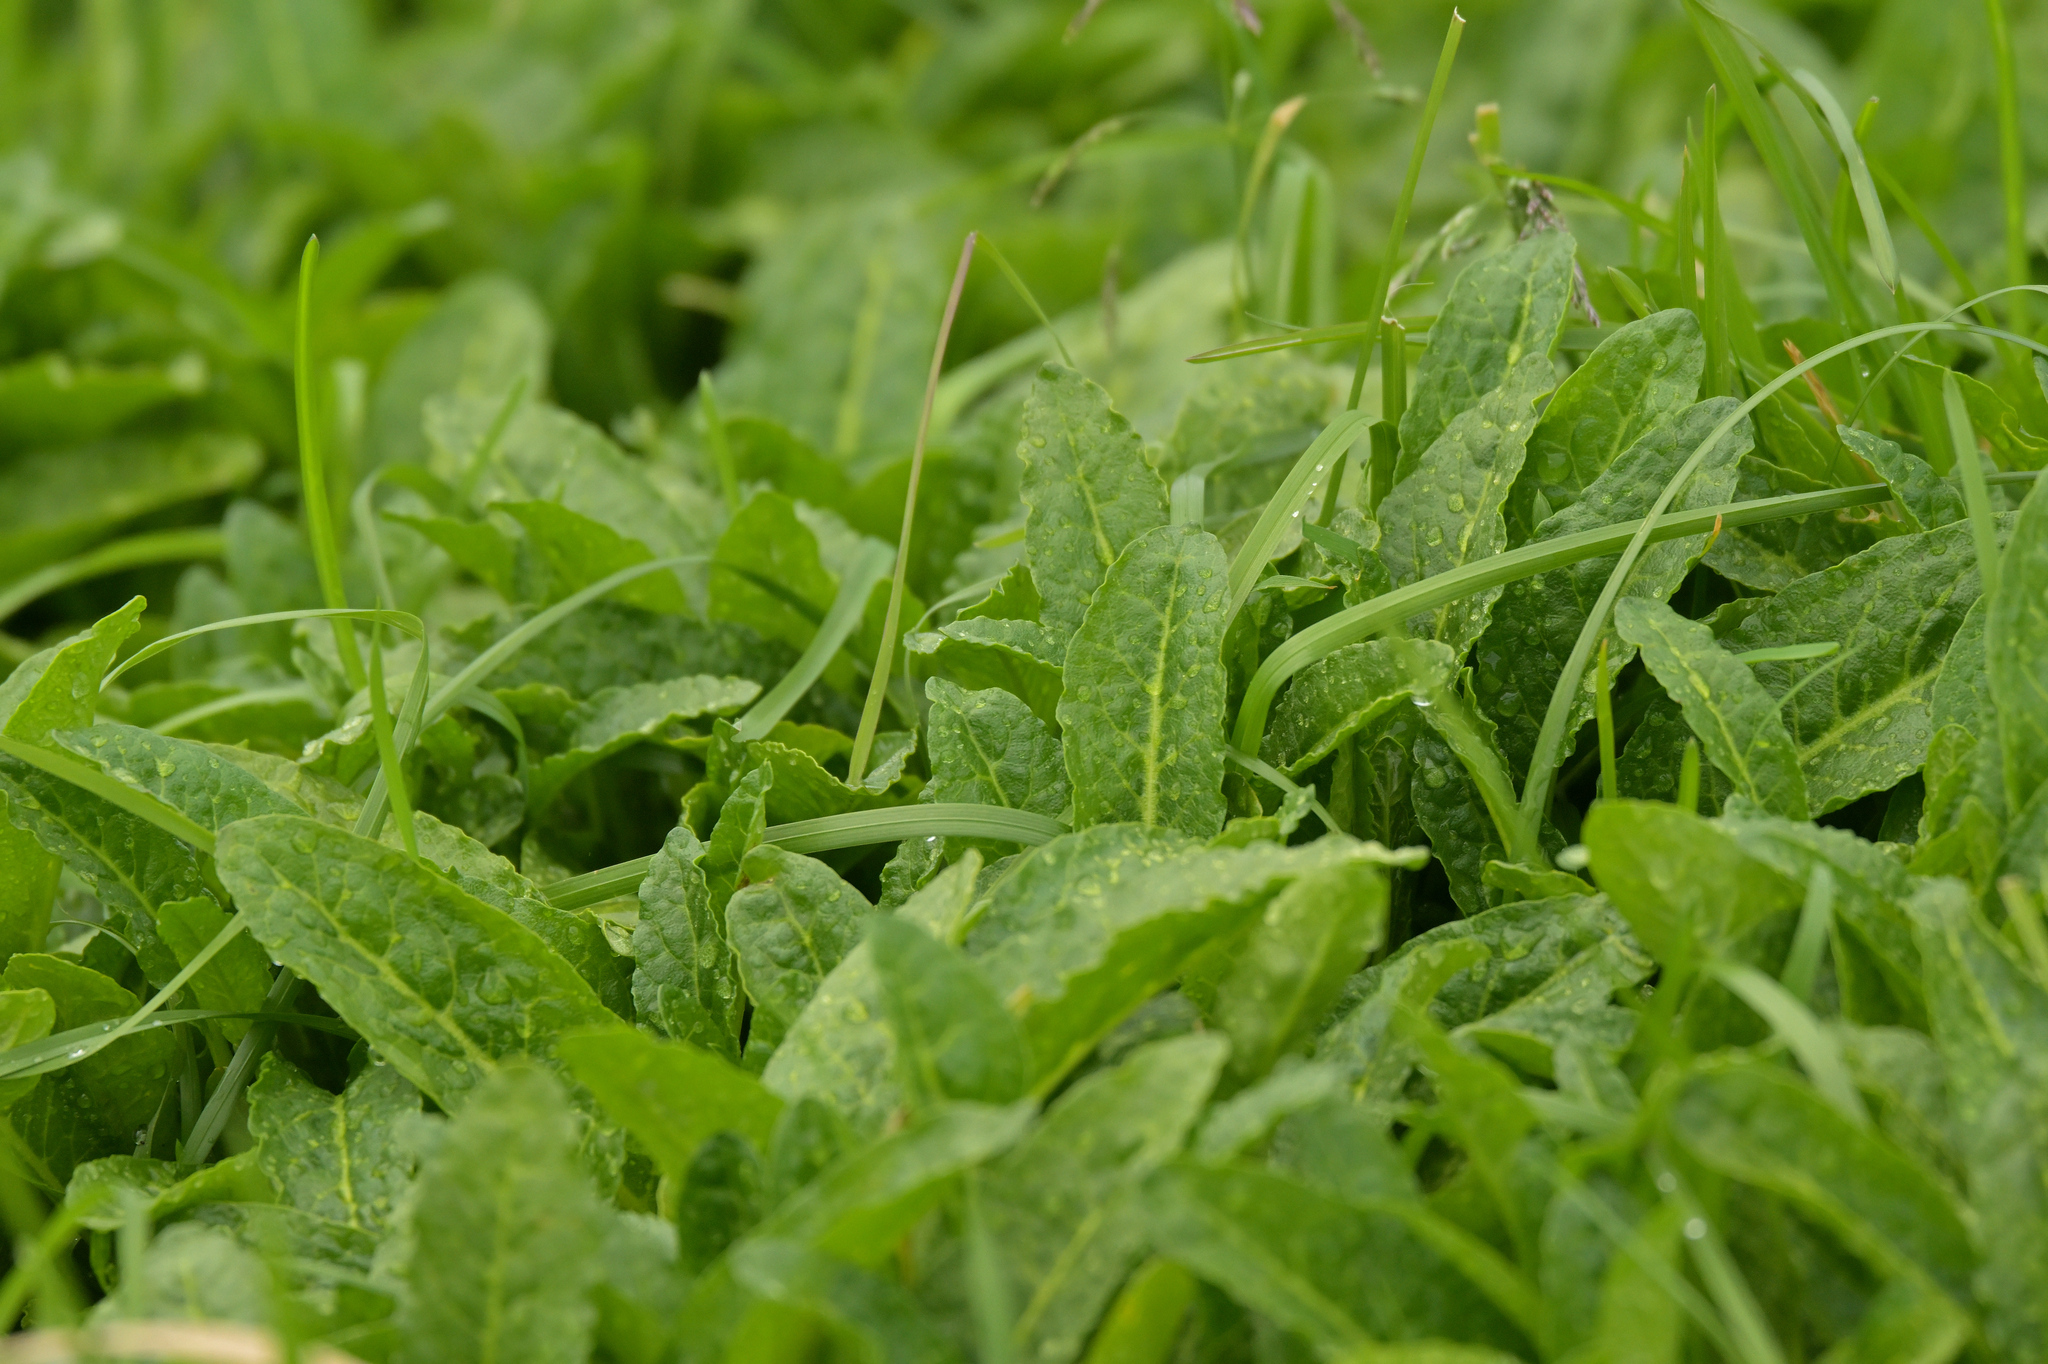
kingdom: Plantae
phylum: Tracheophyta
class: Magnoliopsida
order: Caryophyllales
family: Polygonaceae
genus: Rumex
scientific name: Rumex neglectus
